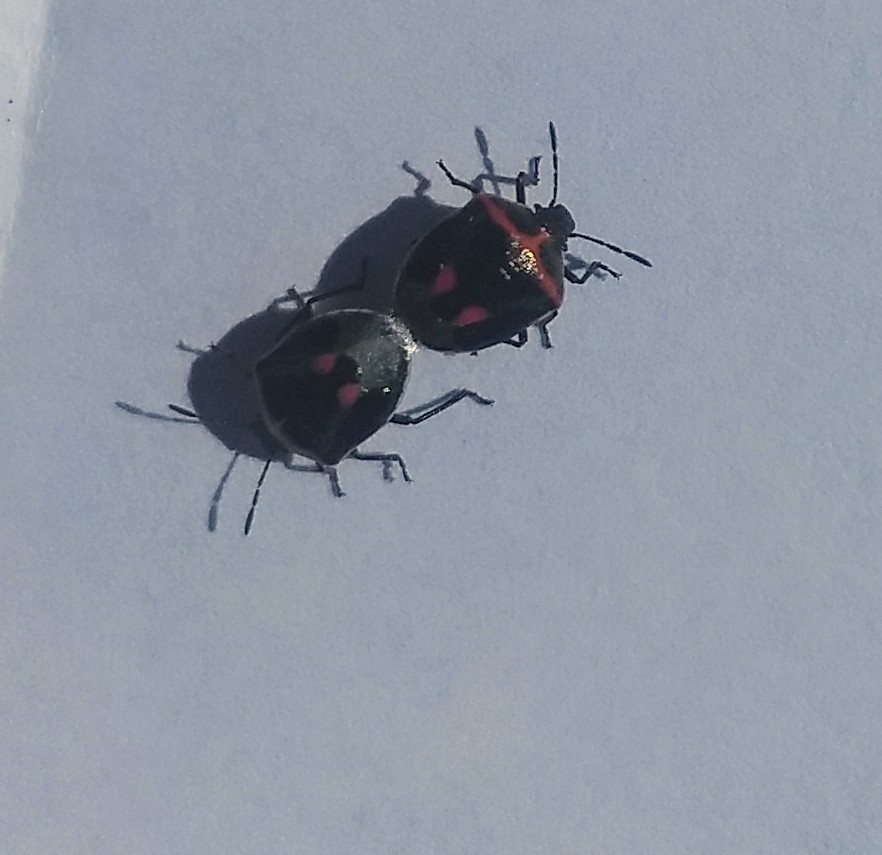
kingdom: Animalia
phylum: Arthropoda
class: Insecta
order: Hemiptera
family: Pentatomidae
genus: Cosmopepla
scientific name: Cosmopepla lintneriana
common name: Twice-stabbed stink bug
